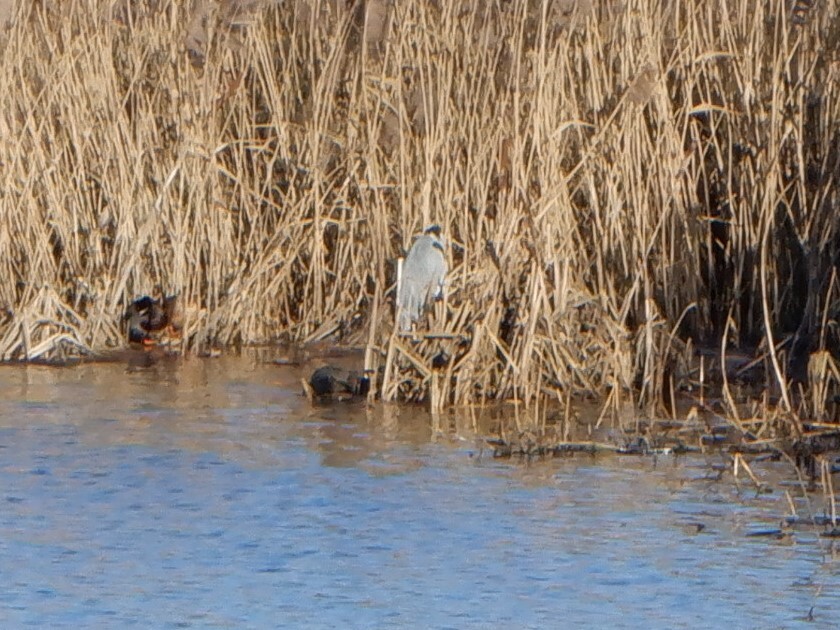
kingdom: Animalia
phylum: Chordata
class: Aves
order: Pelecaniformes
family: Ardeidae
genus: Ardea
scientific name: Ardea cinerea
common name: Grey heron
